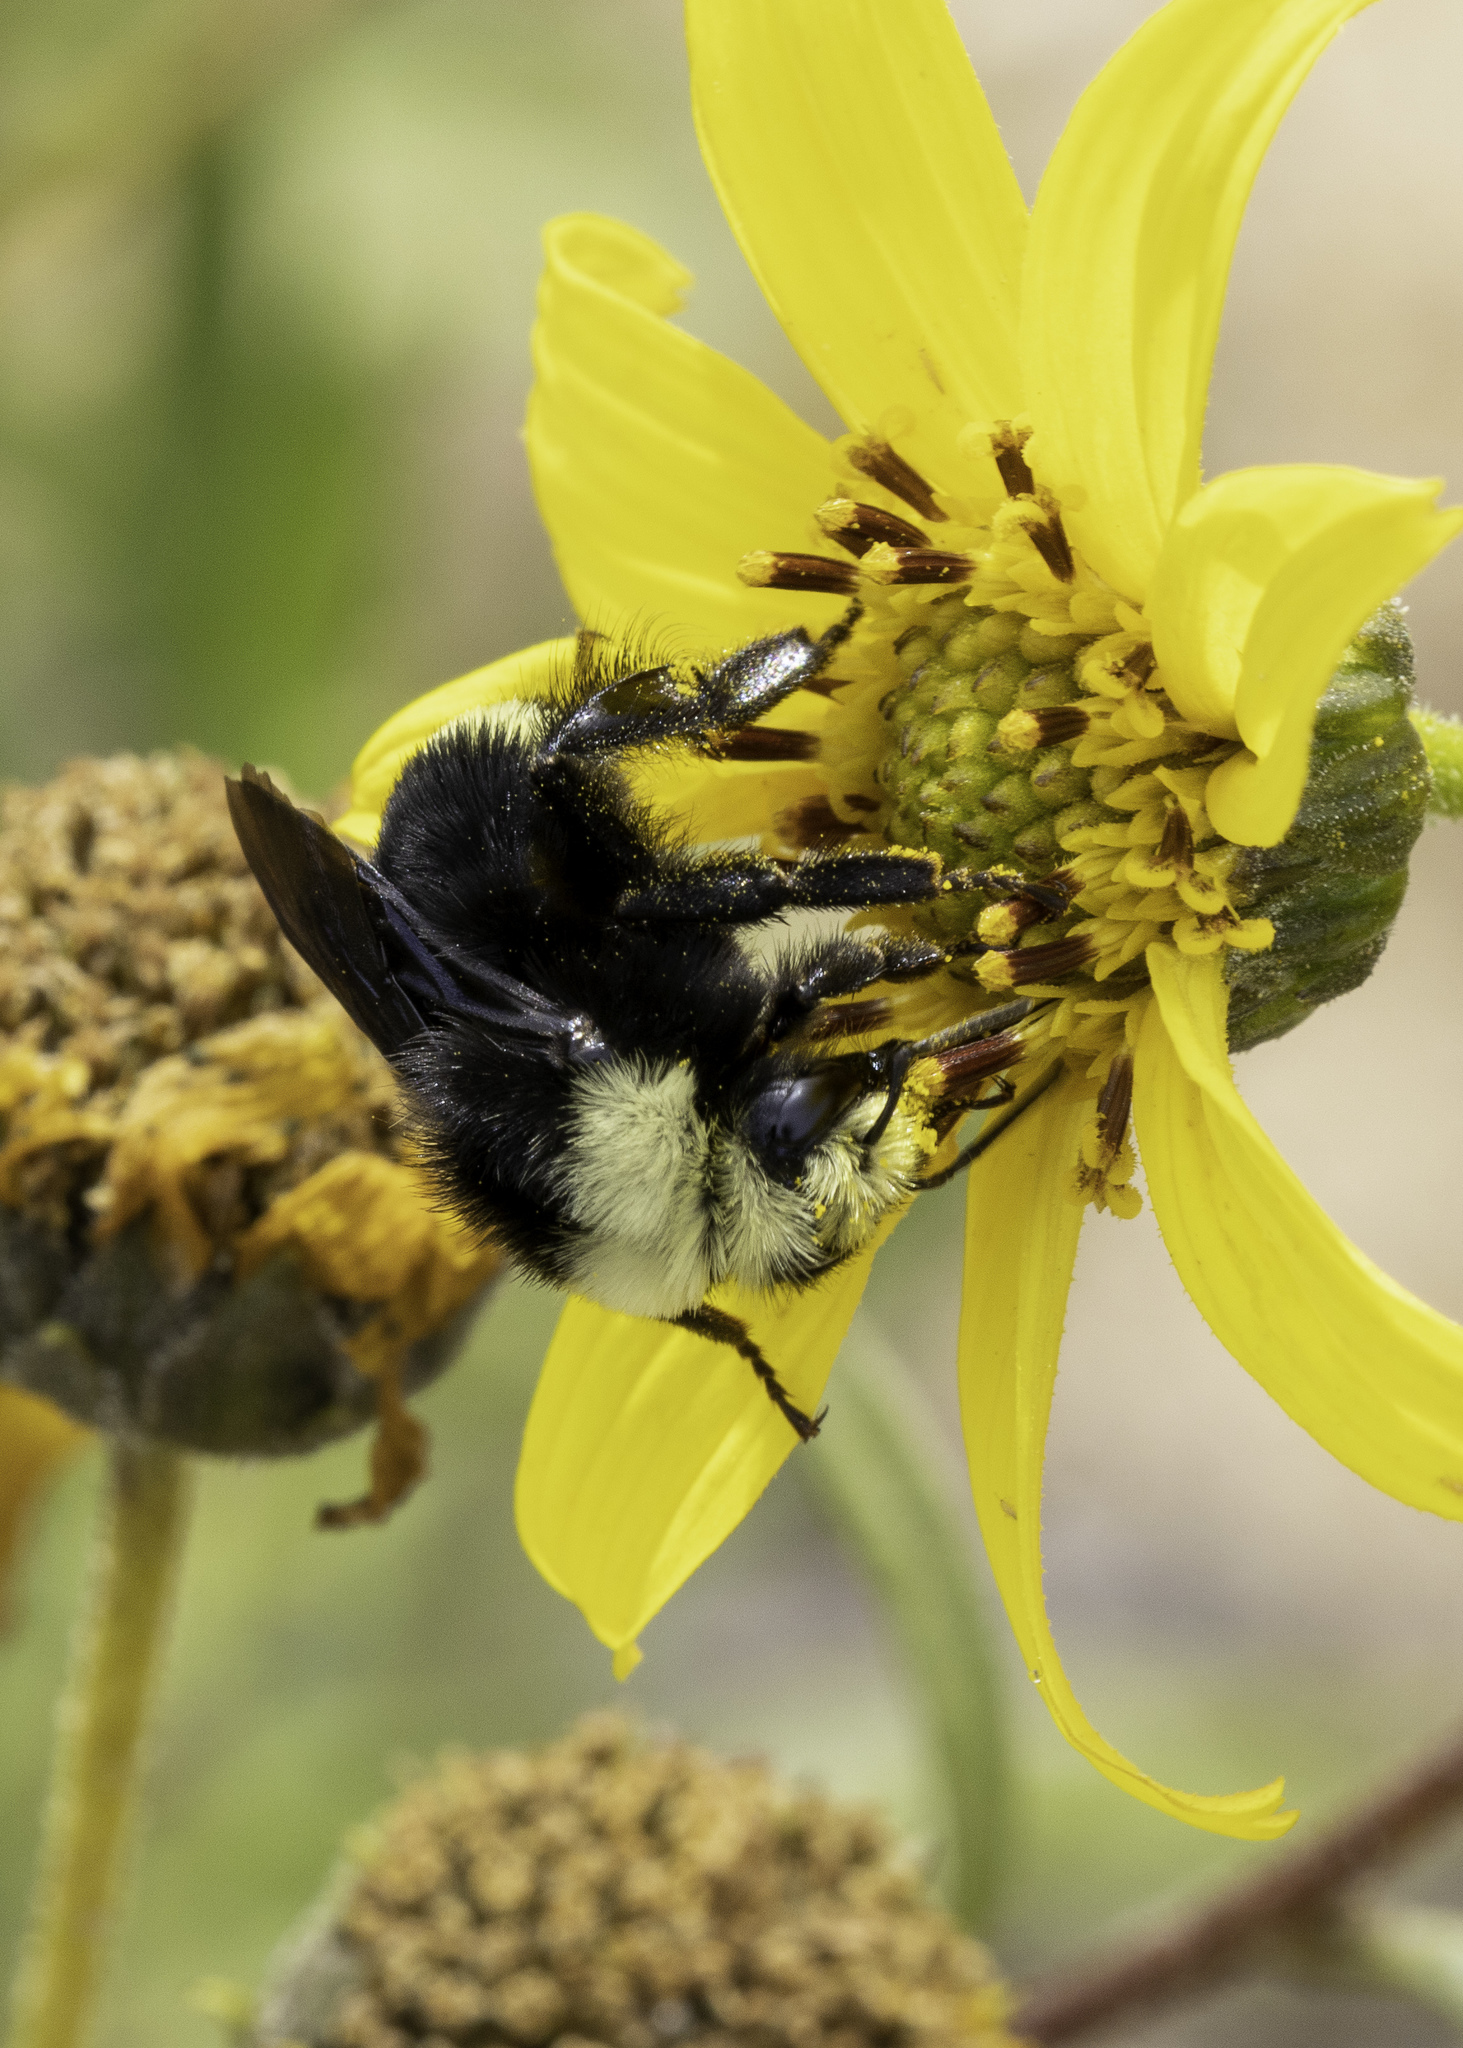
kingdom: Animalia
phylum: Arthropoda
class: Insecta
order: Hymenoptera
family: Apidae
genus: Bombus
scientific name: Bombus vosnesenskii
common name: Vosnesensky bumble bee
